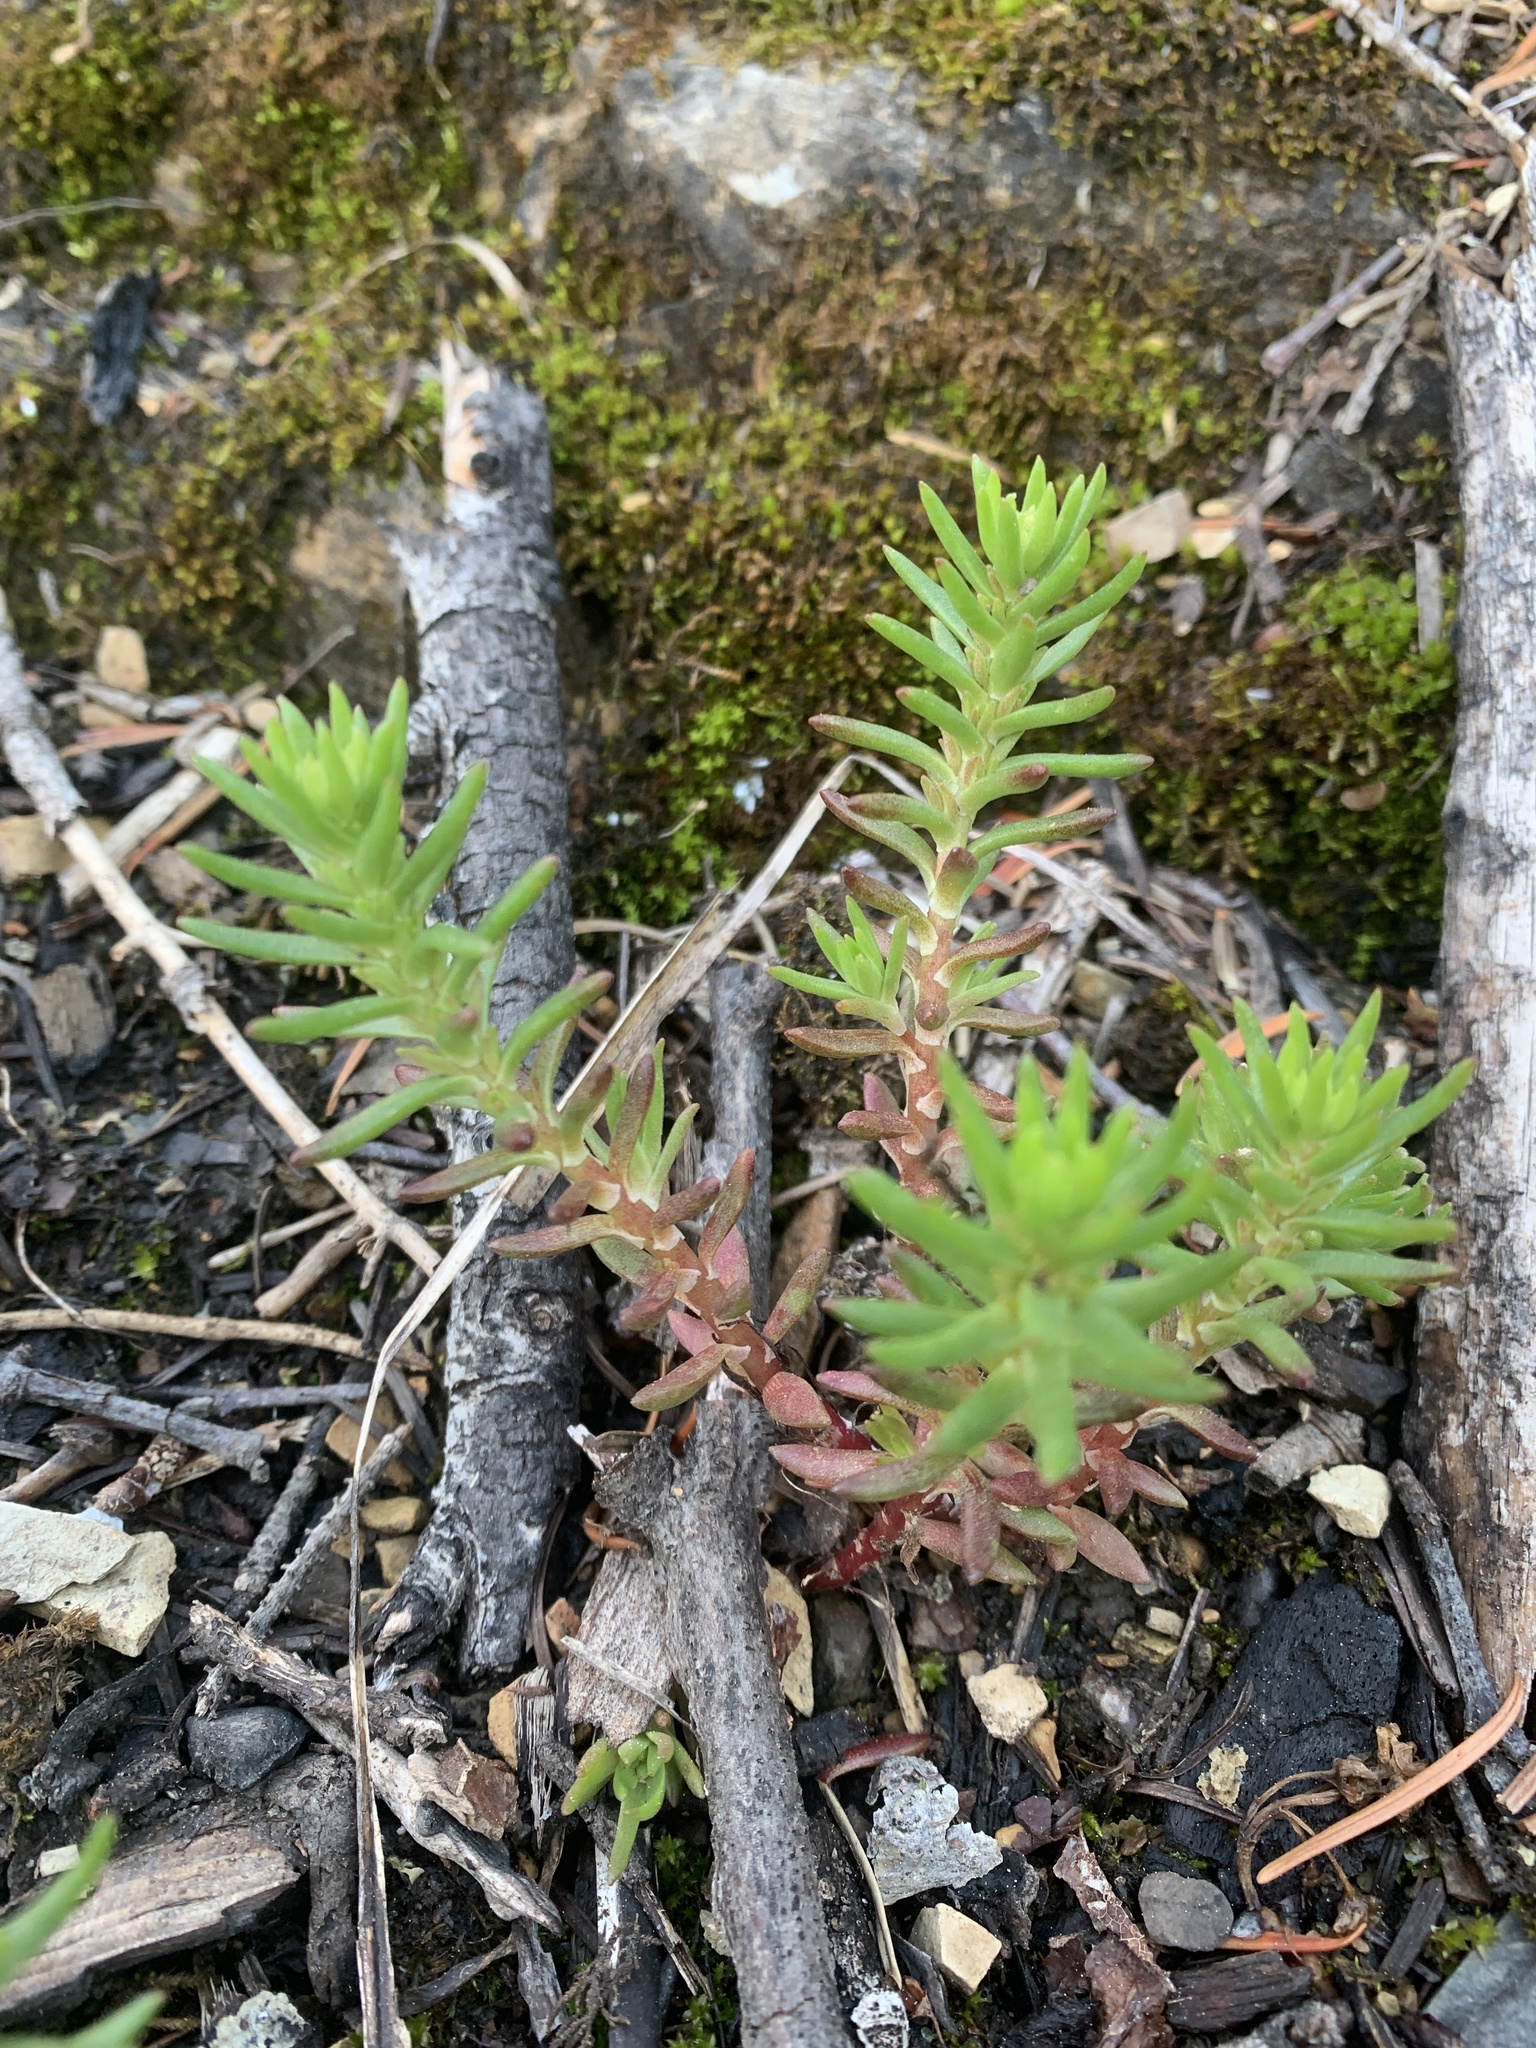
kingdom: Plantae
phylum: Tracheophyta
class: Magnoliopsida
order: Saxifragales
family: Crassulaceae
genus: Sedum
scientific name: Sedum stenopetalum
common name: Narrow-petaled stonecrop
